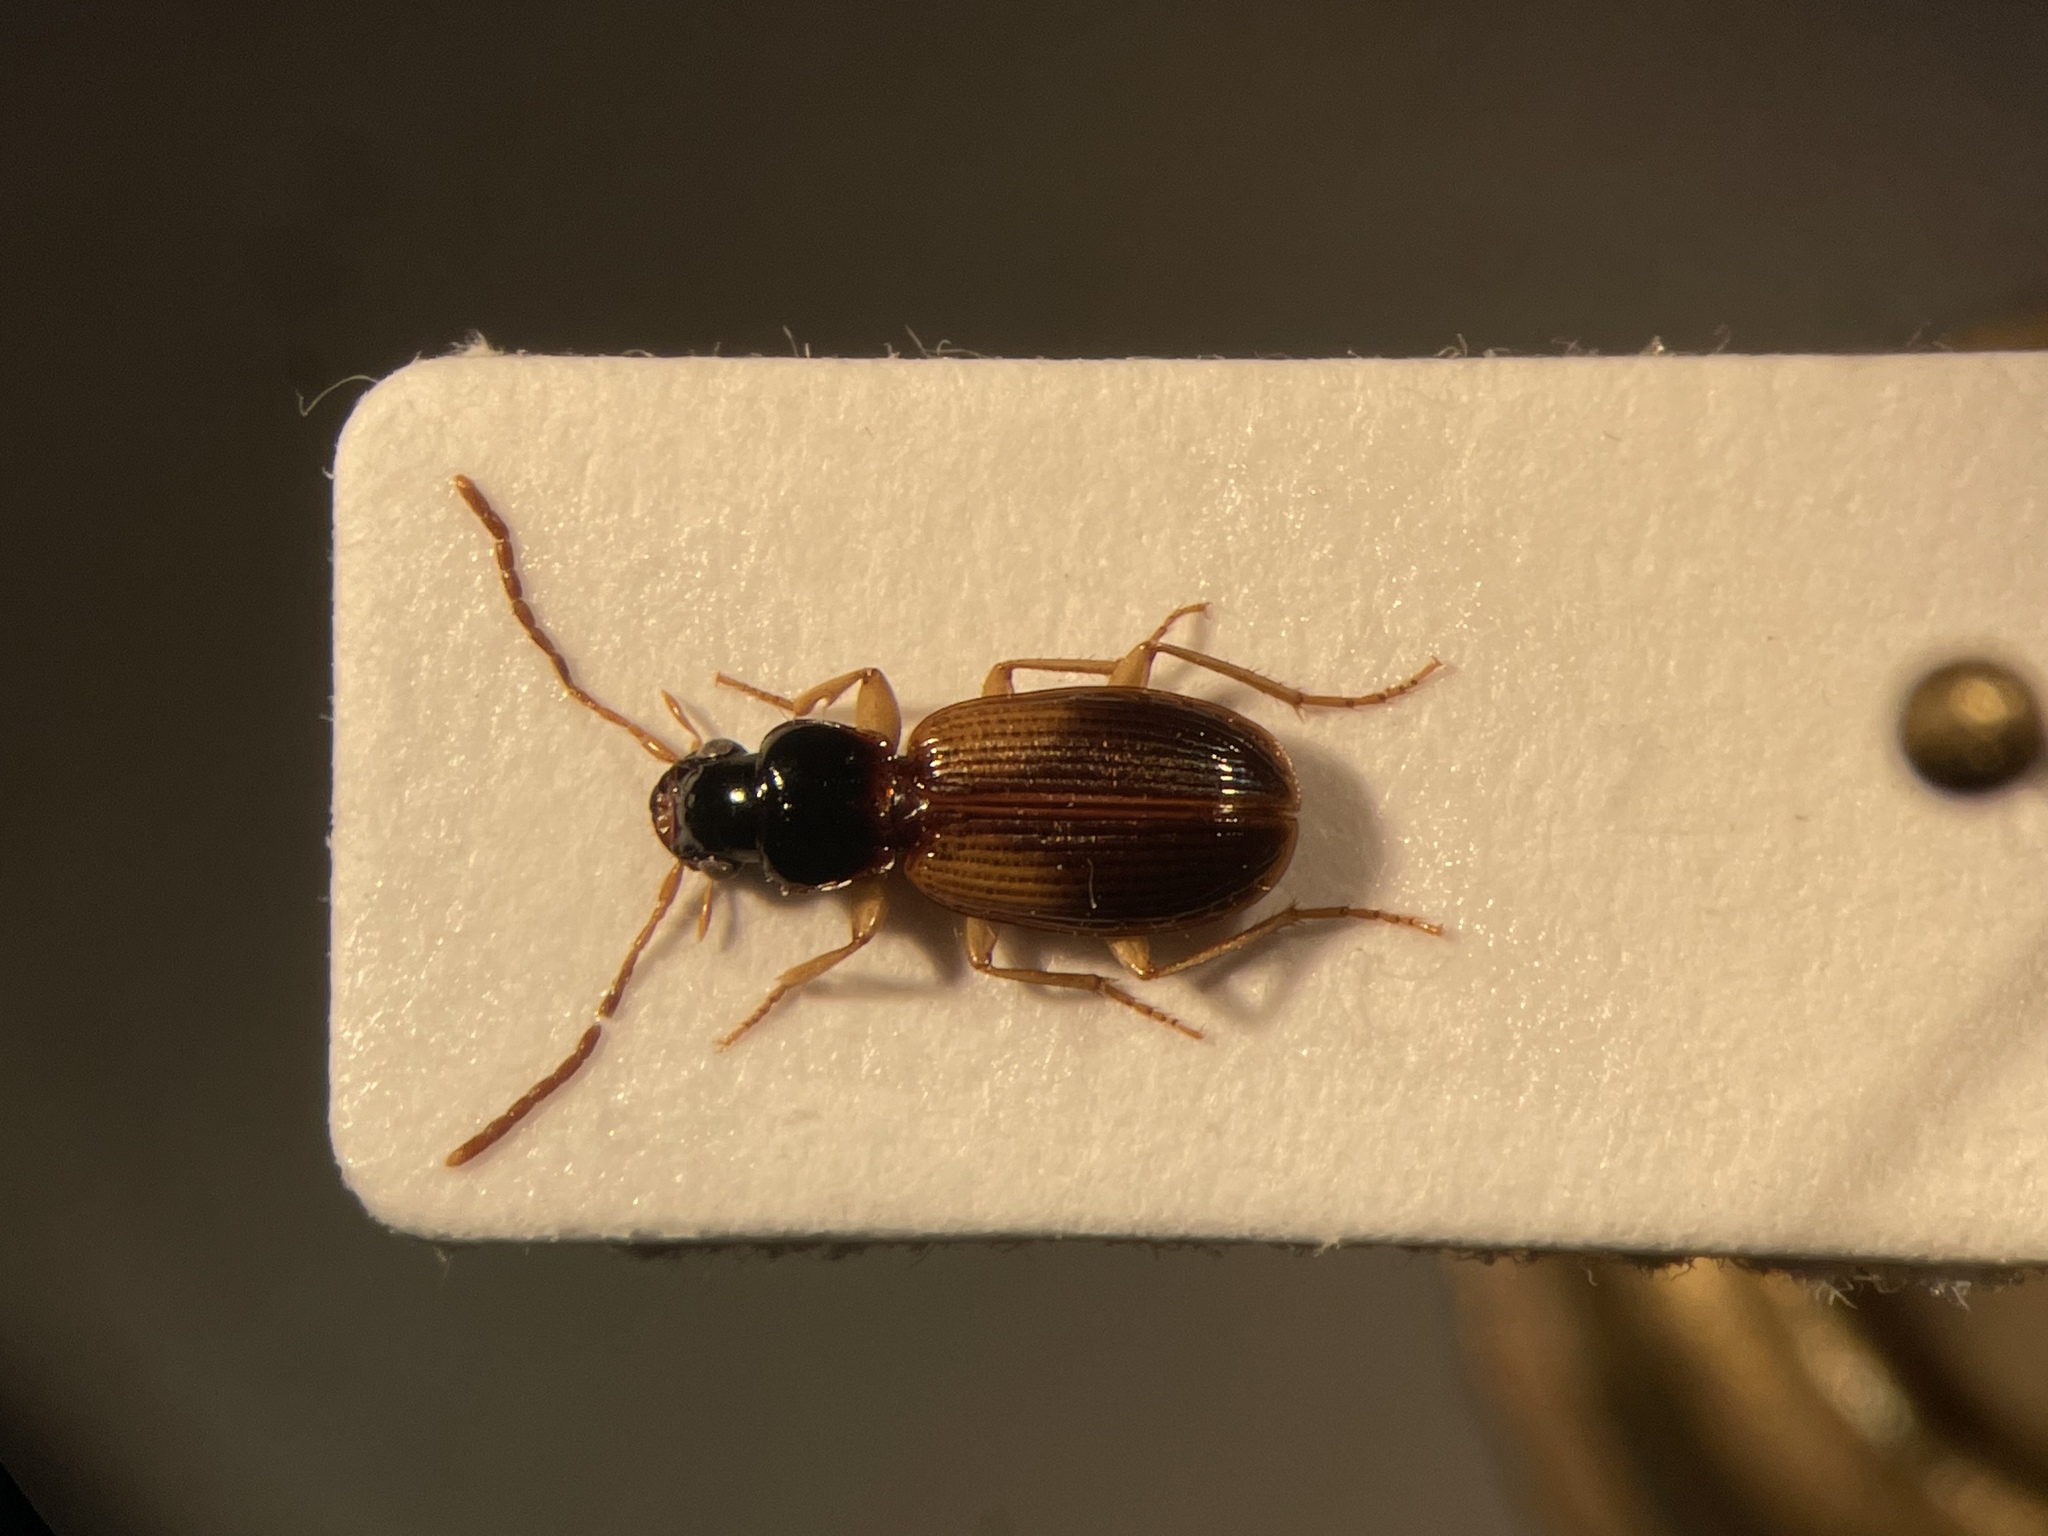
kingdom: Animalia
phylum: Arthropoda
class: Insecta
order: Coleoptera
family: Carabidae
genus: Badister
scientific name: Badister notatus
